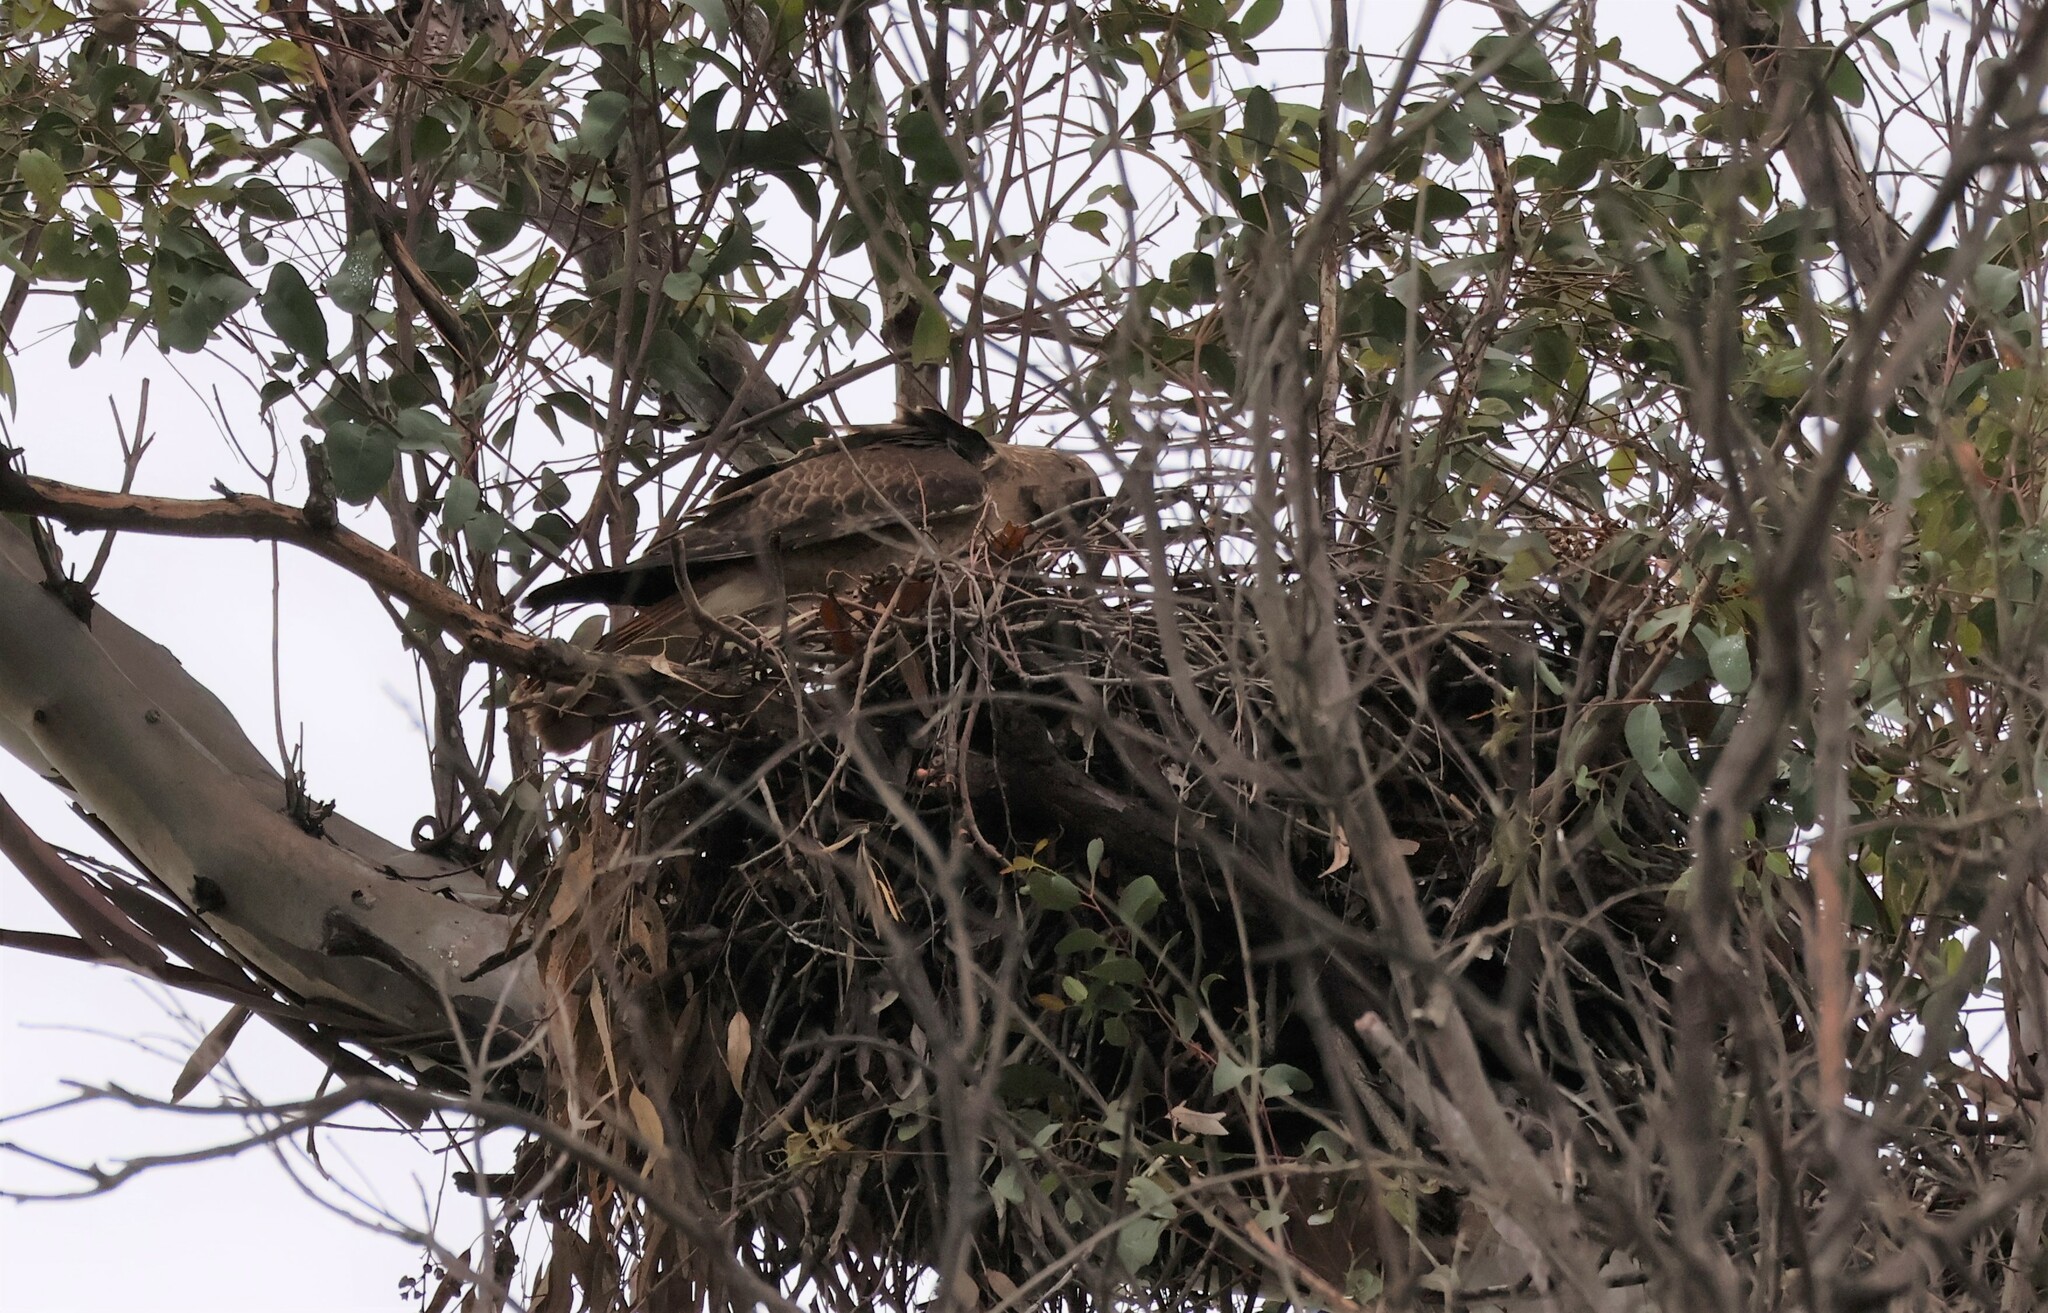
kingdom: Animalia
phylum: Chordata
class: Aves
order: Accipitriformes
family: Accipitridae
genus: Buteo
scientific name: Buteo jamaicensis
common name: Red-tailed hawk
